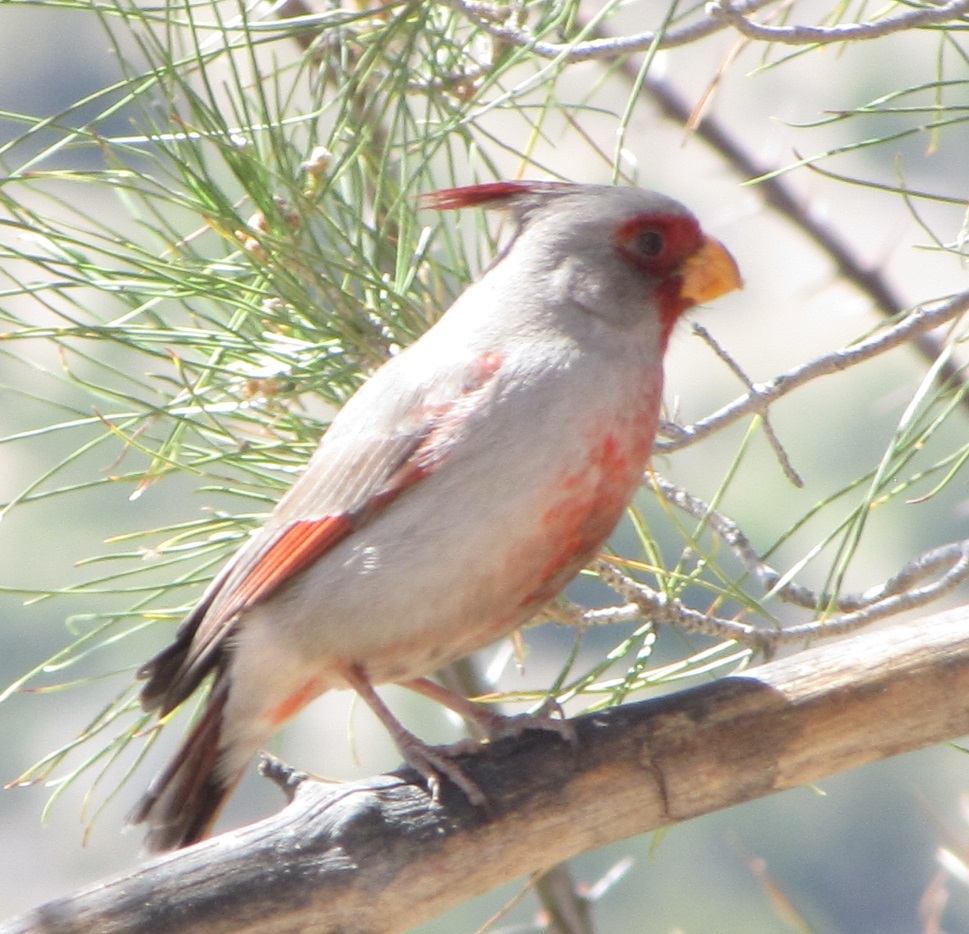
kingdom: Animalia
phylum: Chordata
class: Aves
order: Passeriformes
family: Cardinalidae
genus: Cardinalis
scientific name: Cardinalis sinuatus
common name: Pyrrhuloxia
